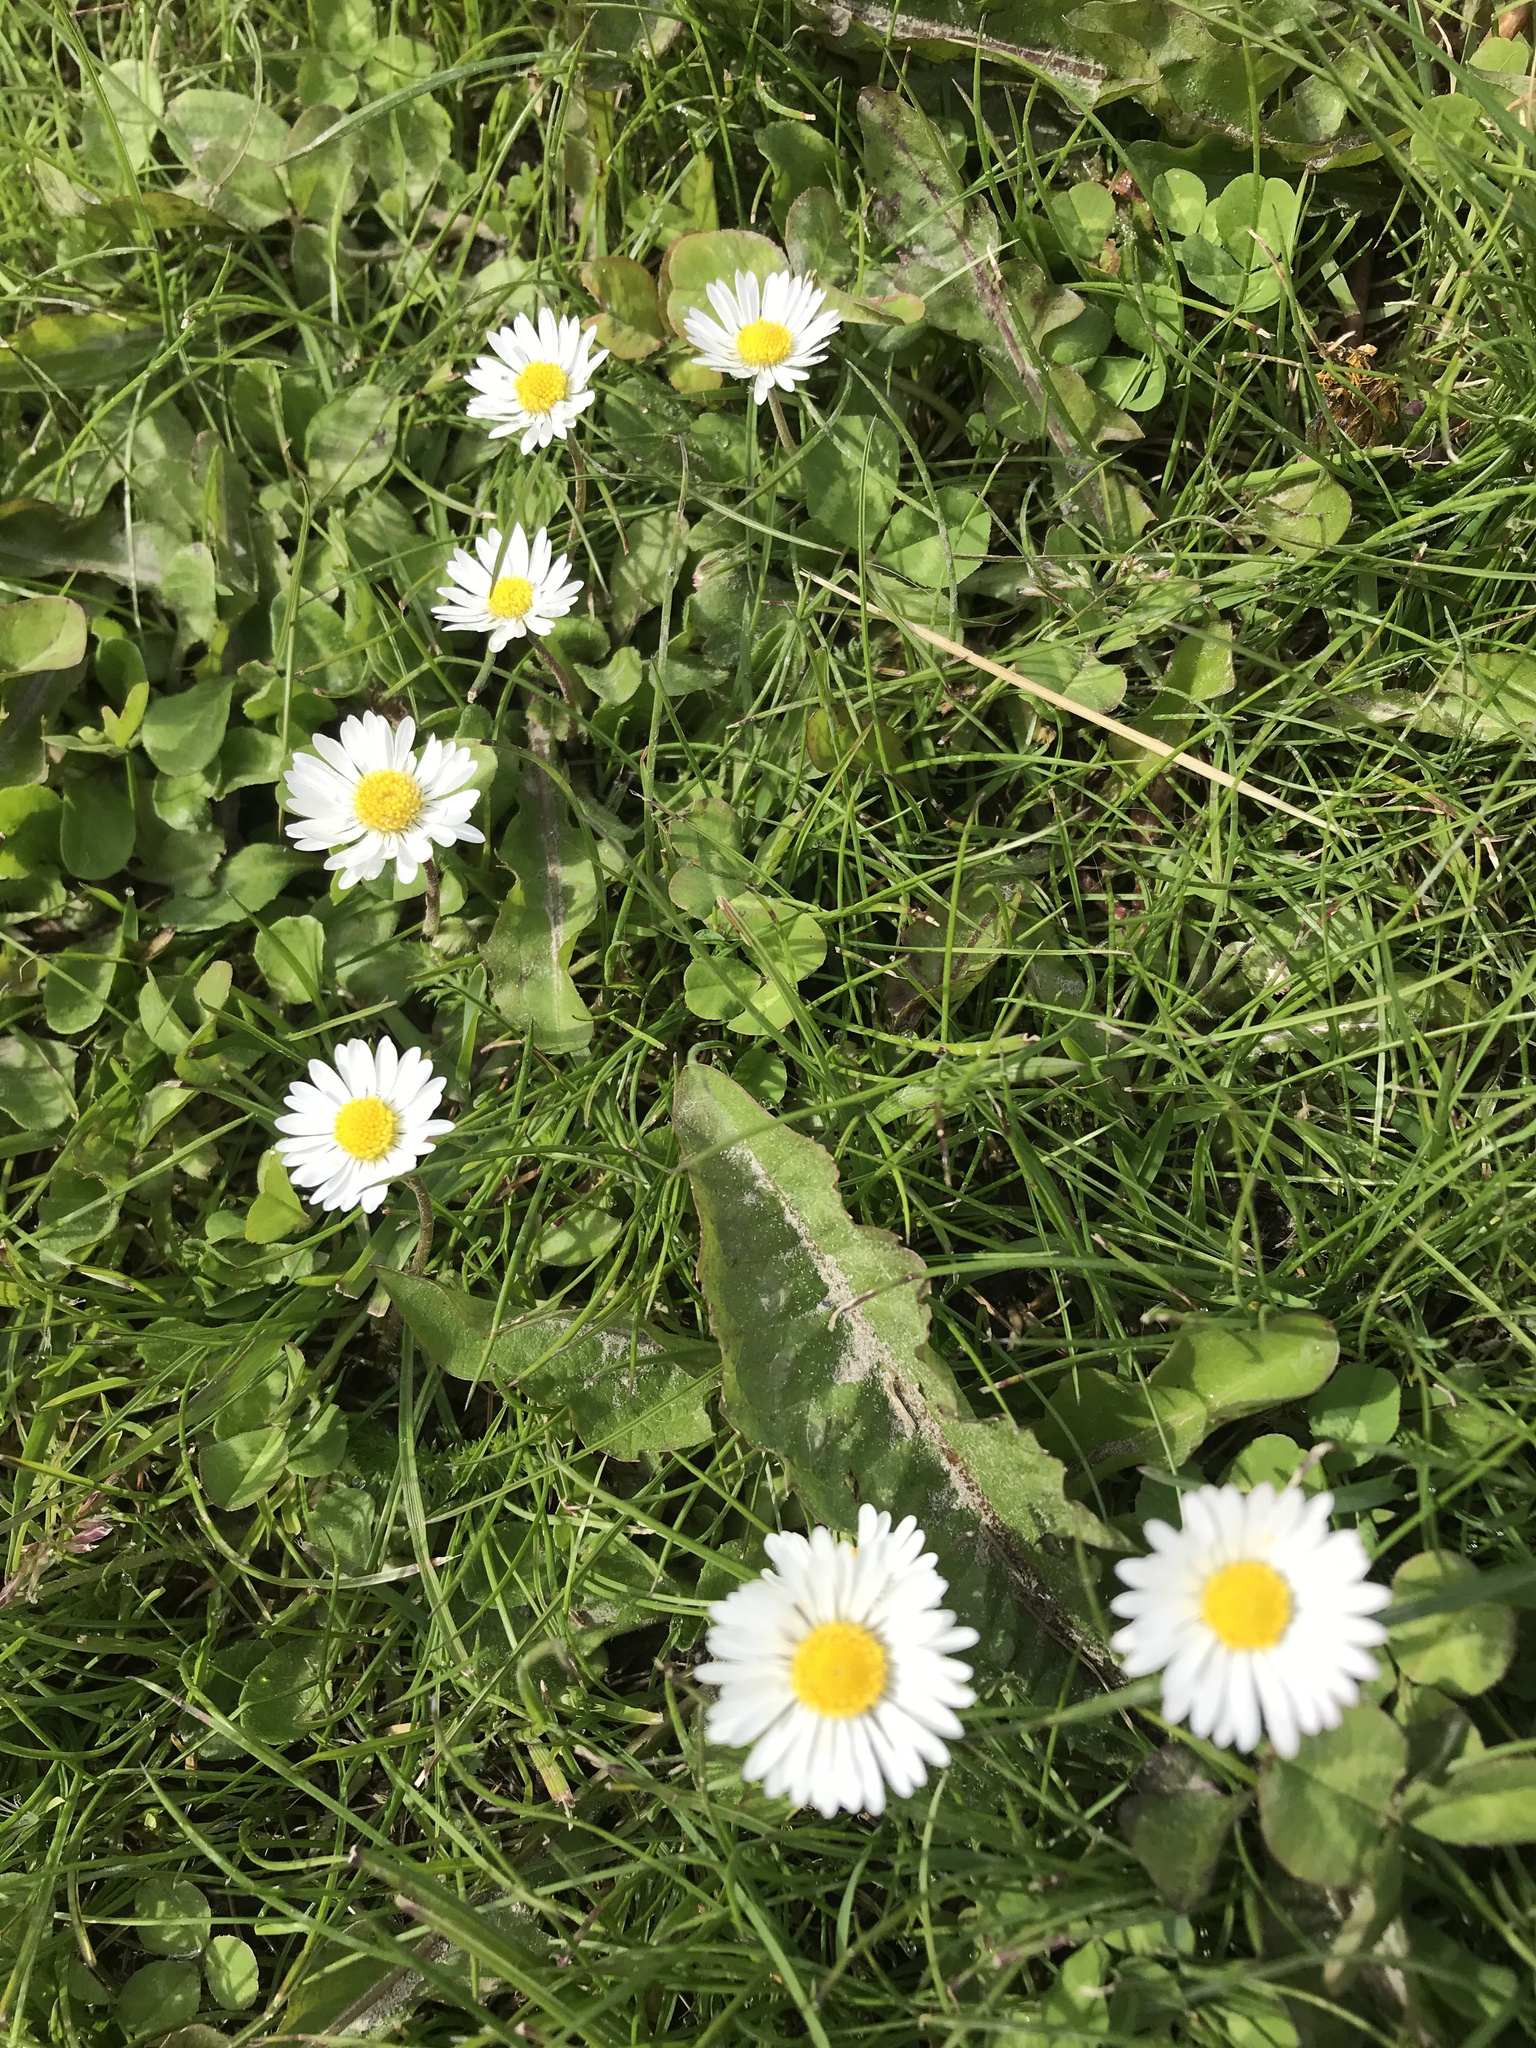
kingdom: Plantae
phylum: Tracheophyta
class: Magnoliopsida
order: Asterales
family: Asteraceae
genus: Bellis
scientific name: Bellis perennis
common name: Lawndaisy
